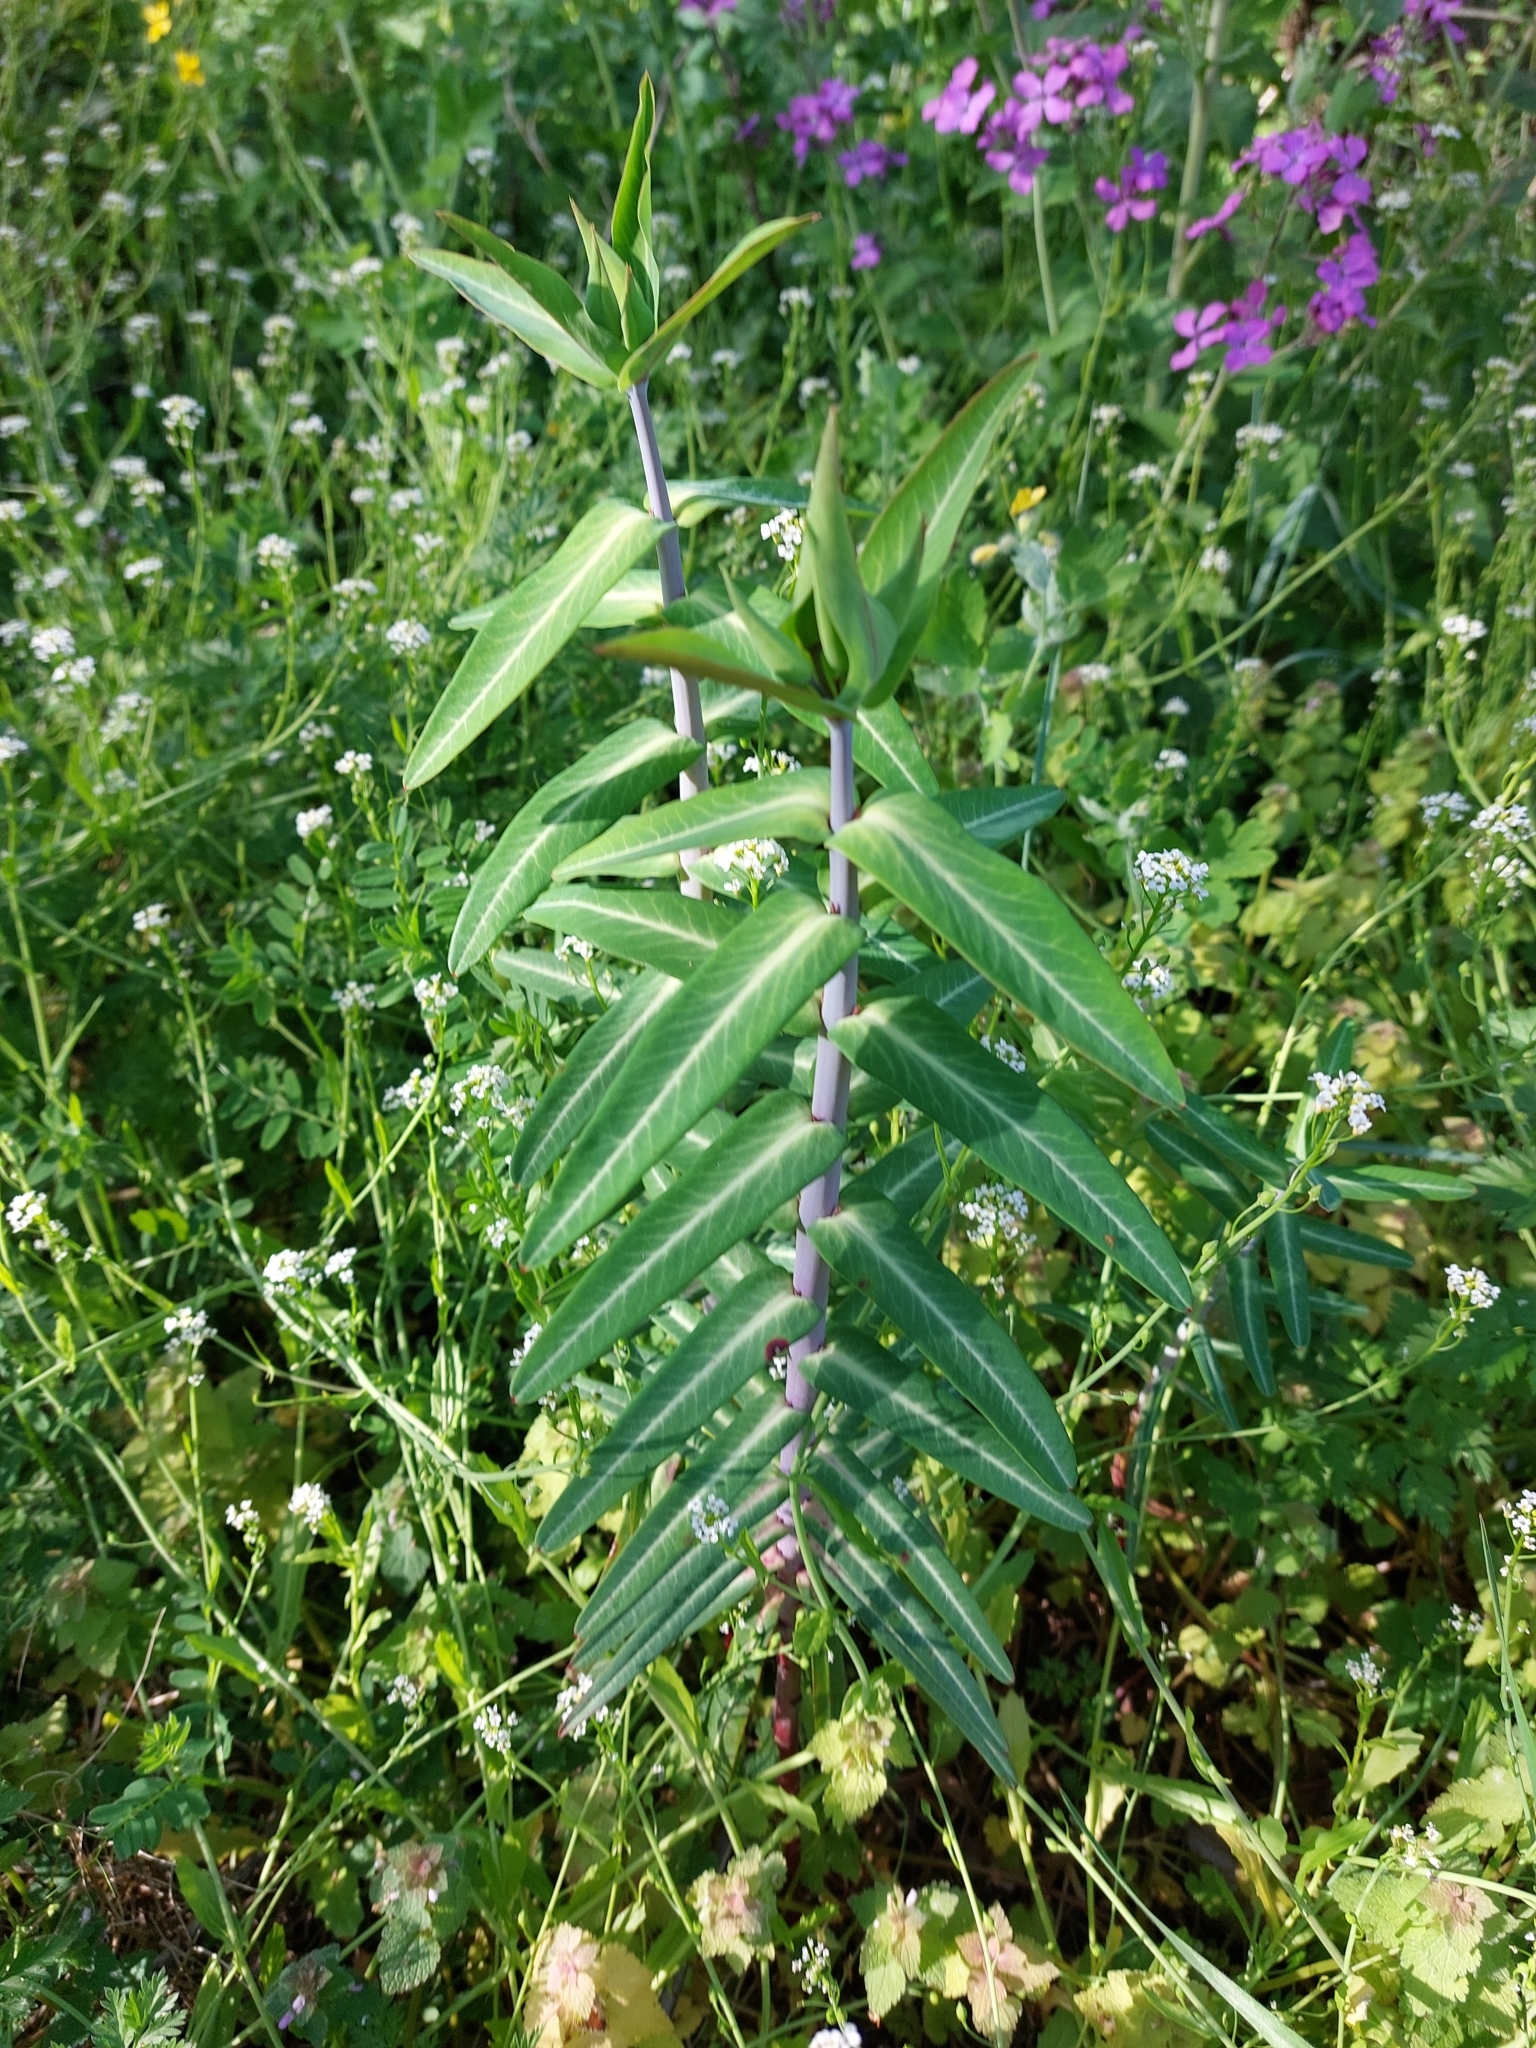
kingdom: Plantae
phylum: Tracheophyta
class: Magnoliopsida
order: Malpighiales
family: Euphorbiaceae
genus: Euphorbia
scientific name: Euphorbia lathyris
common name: Caper spurge
